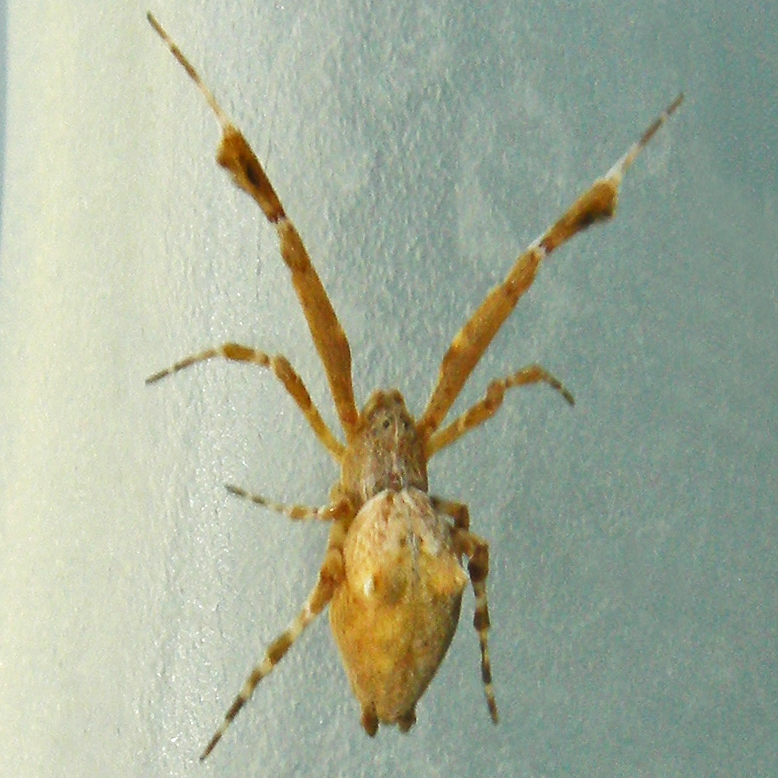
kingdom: Animalia
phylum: Arthropoda
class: Arachnida
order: Araneae
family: Uloboridae
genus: Uloborus
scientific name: Uloborus glomosus
